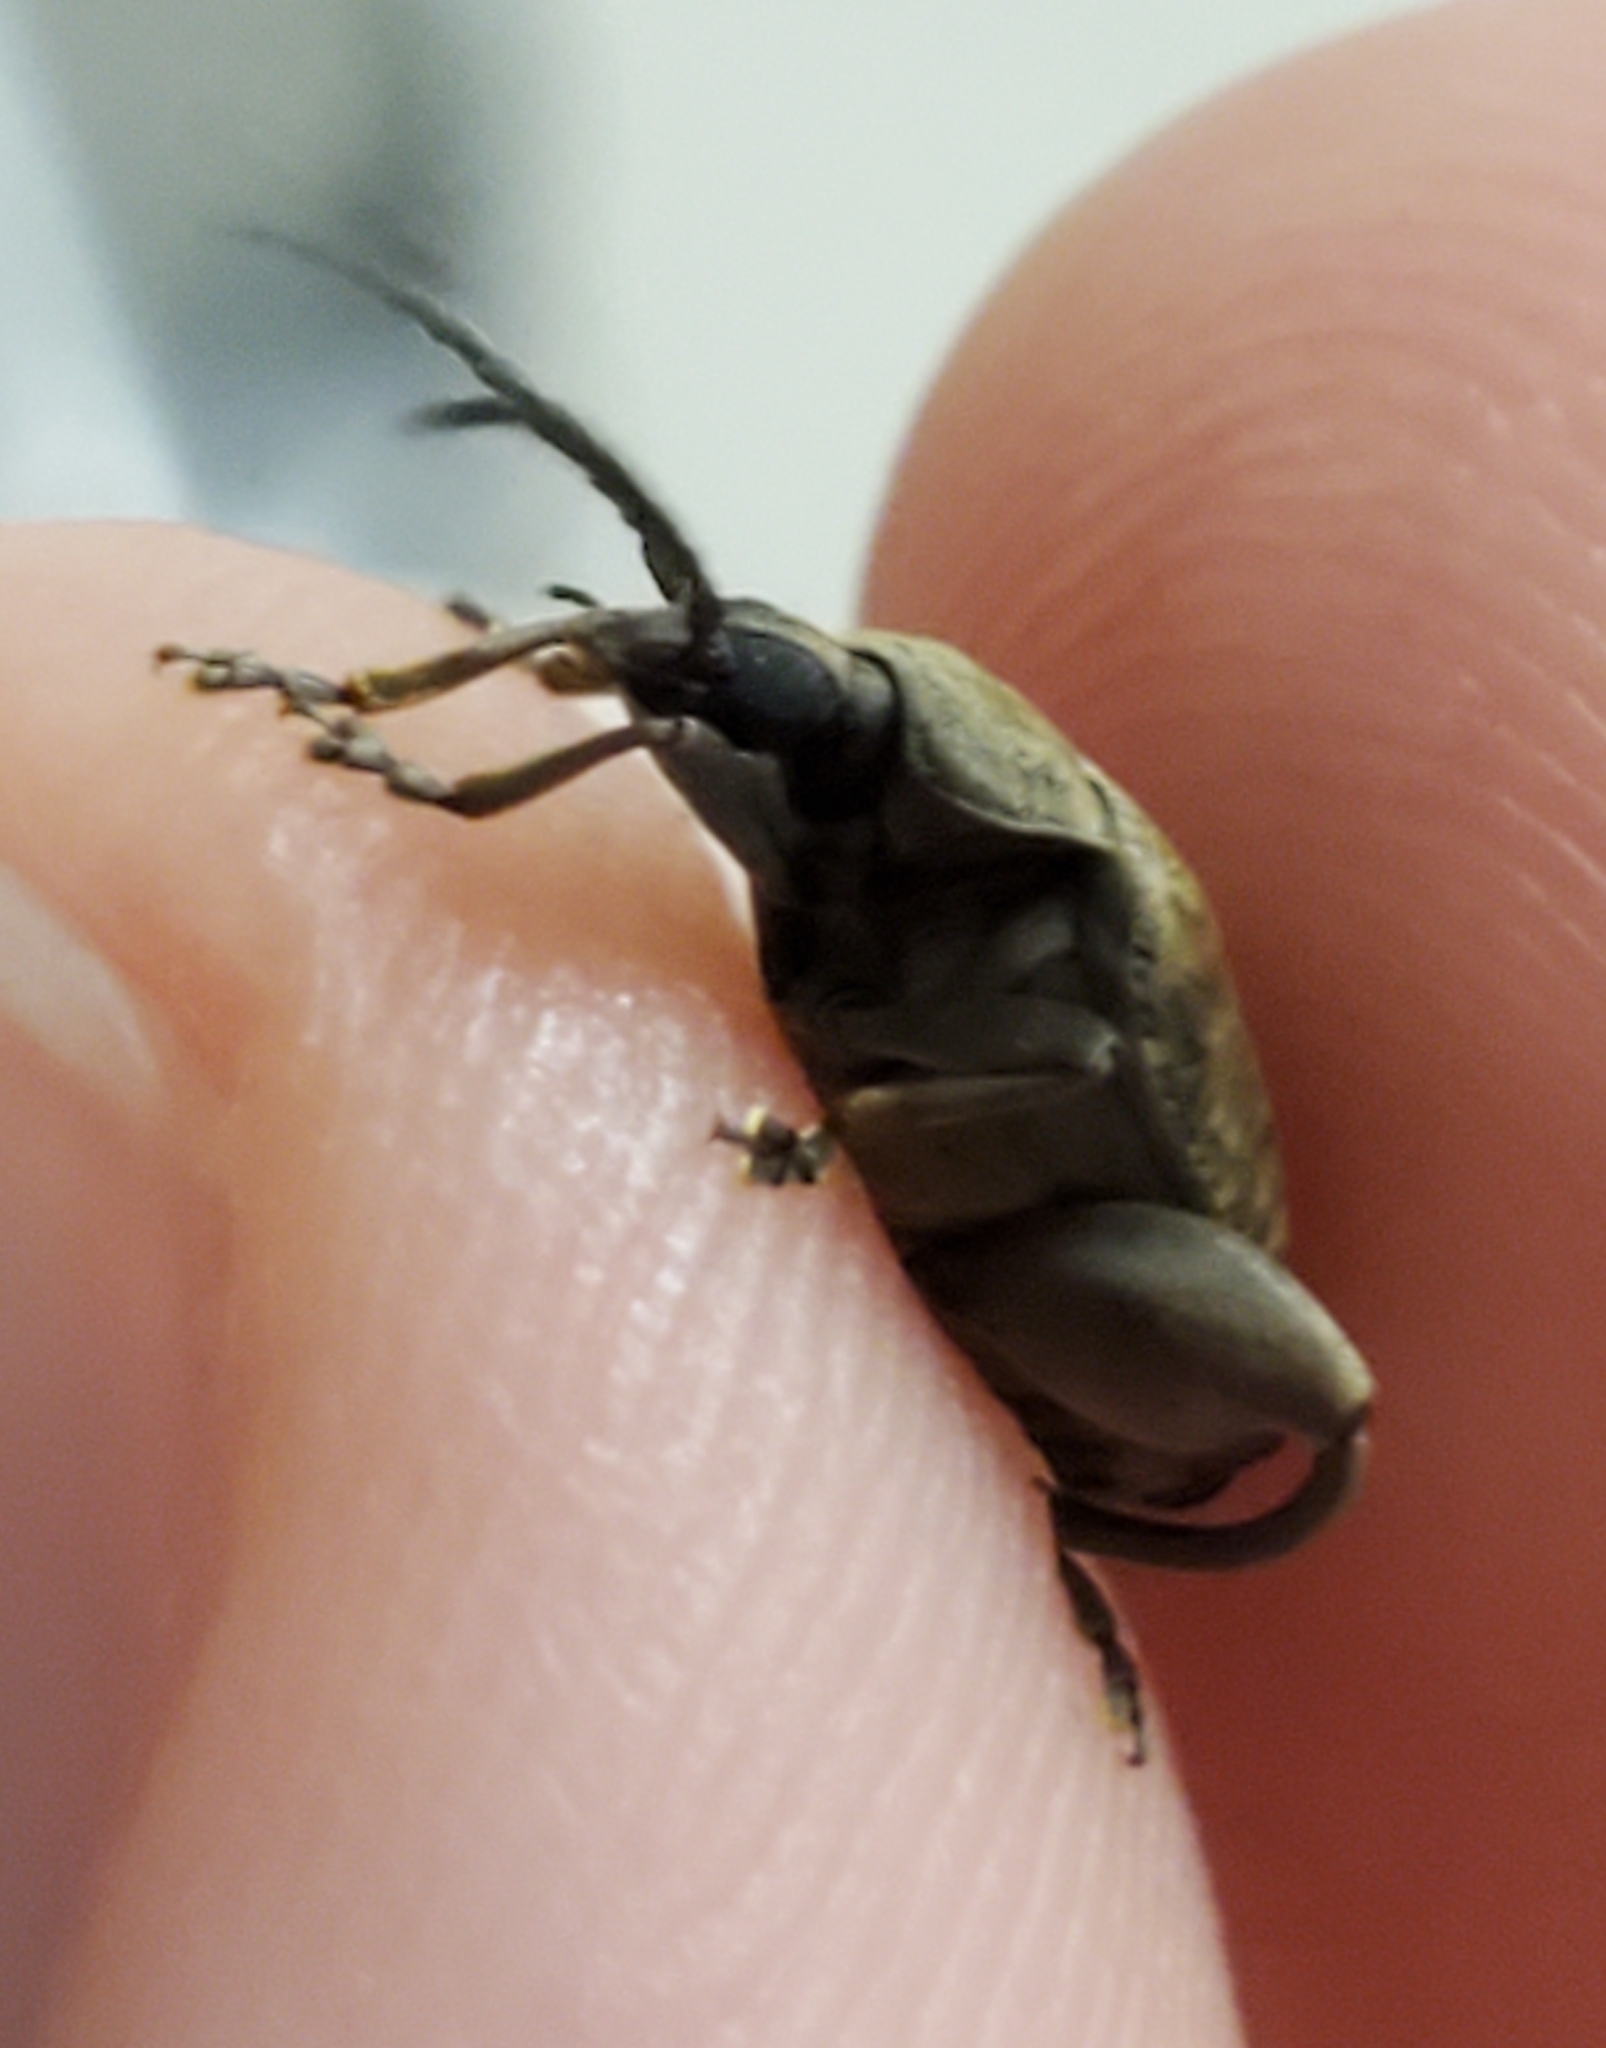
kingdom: Animalia
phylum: Arthropoda
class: Insecta
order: Coleoptera
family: Chrysomelidae
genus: Caryobruchus
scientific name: Caryobruchus gleditsiae
